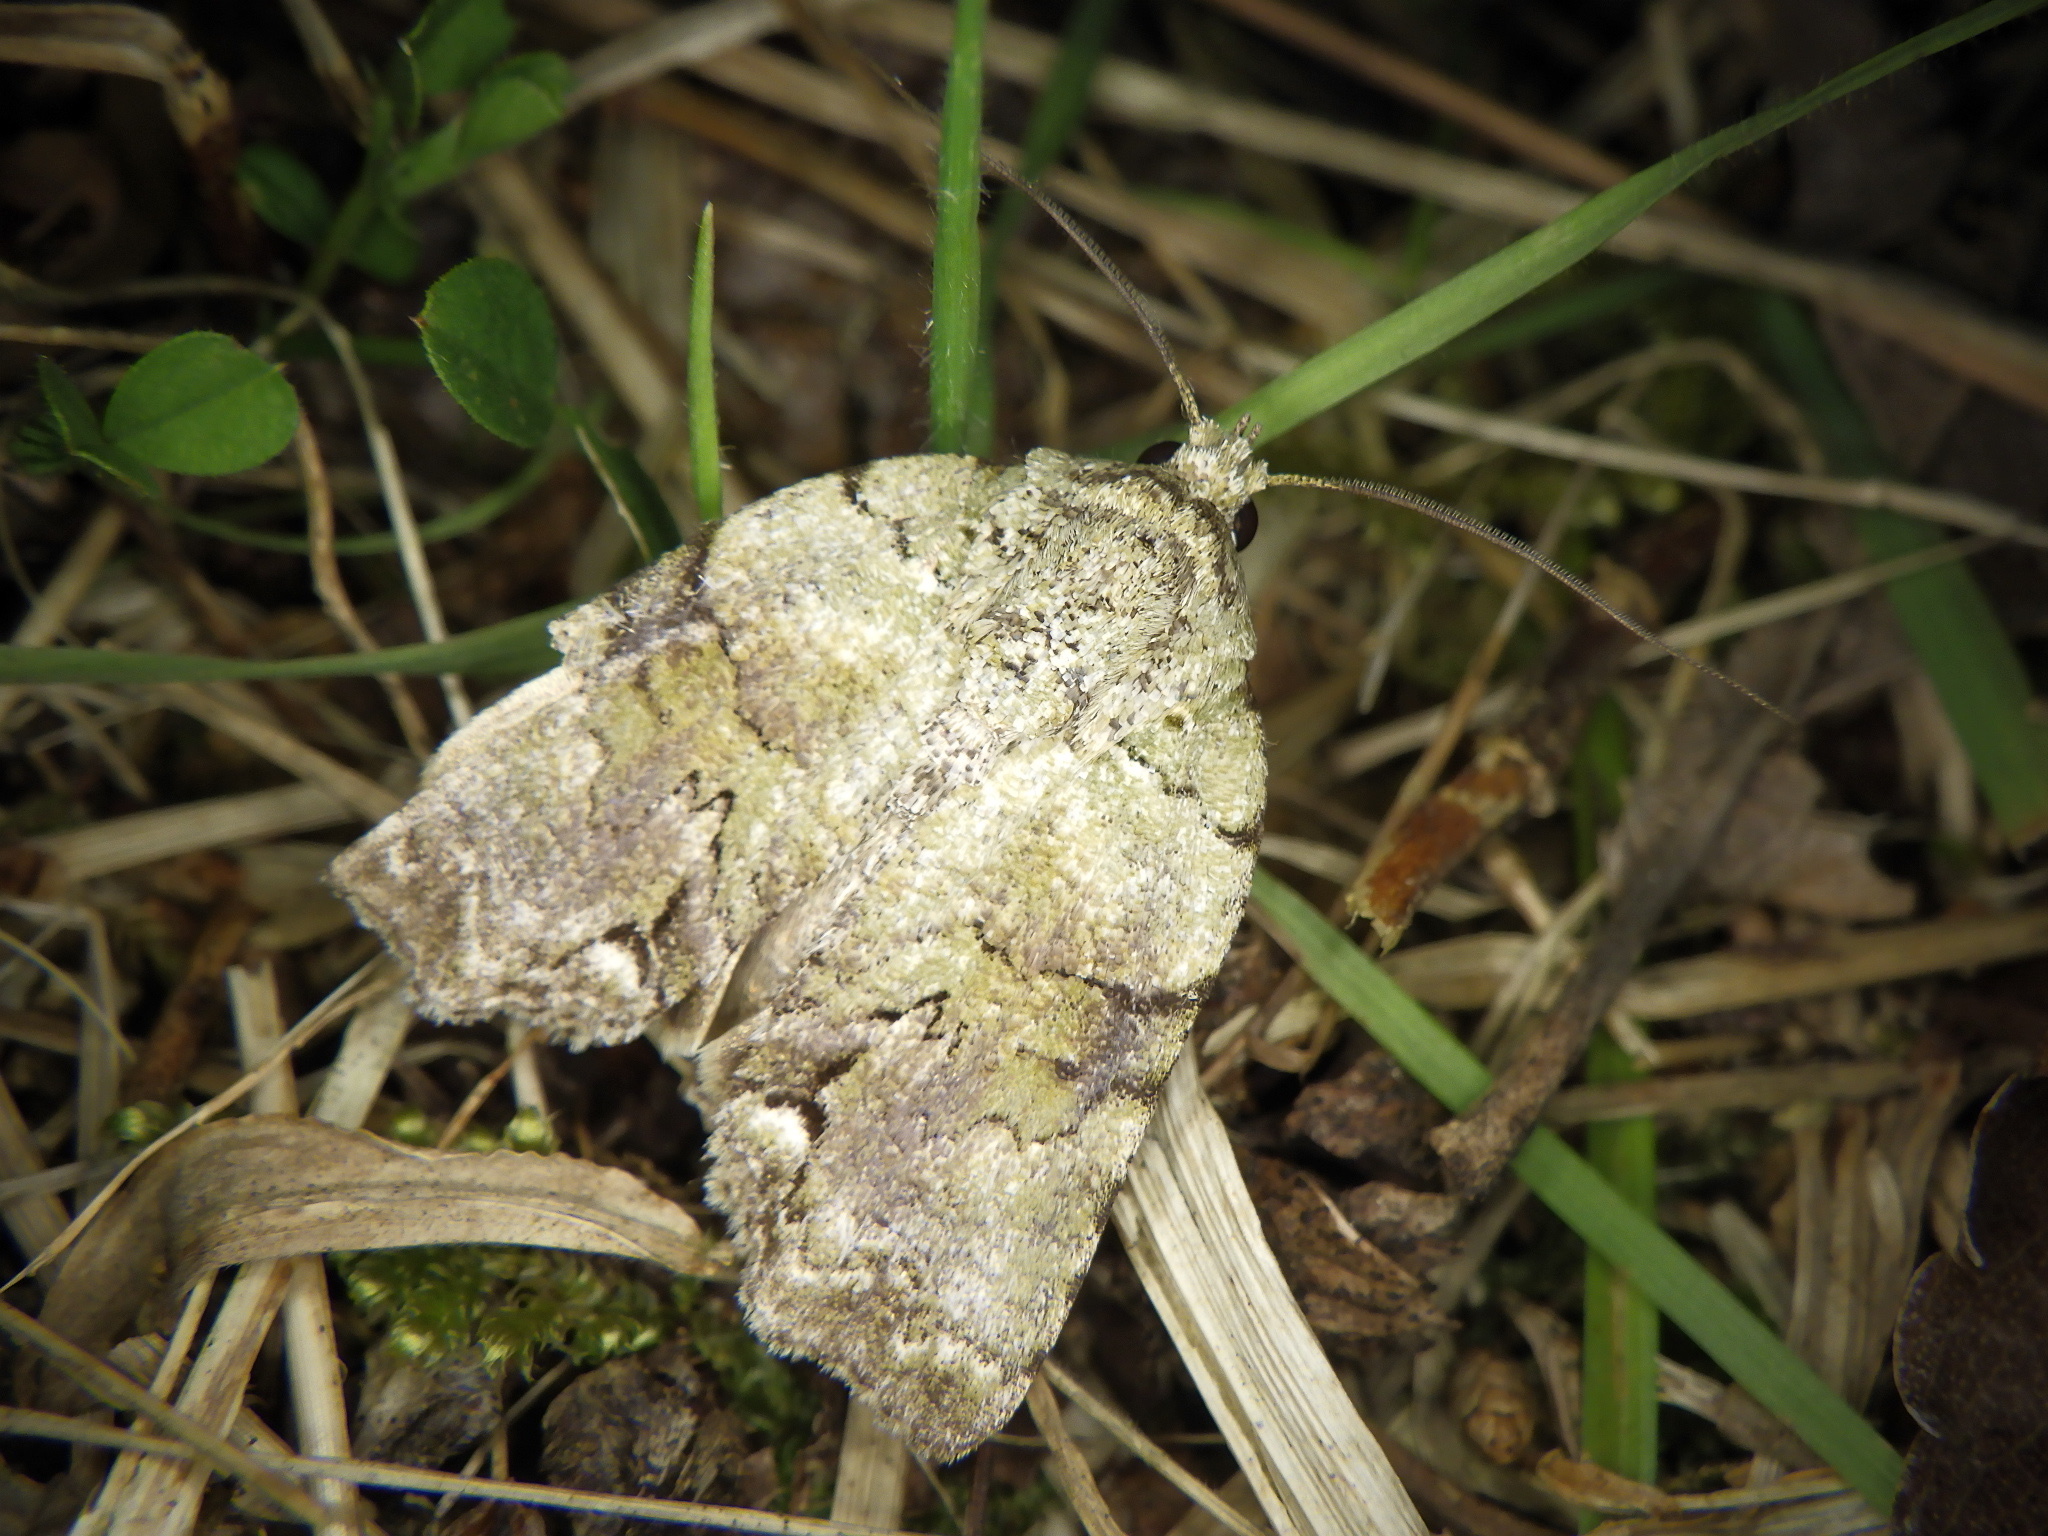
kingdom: Animalia
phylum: Arthropoda
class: Insecta
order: Lepidoptera
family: Nolidae
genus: Blenina
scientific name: Blenina senex
